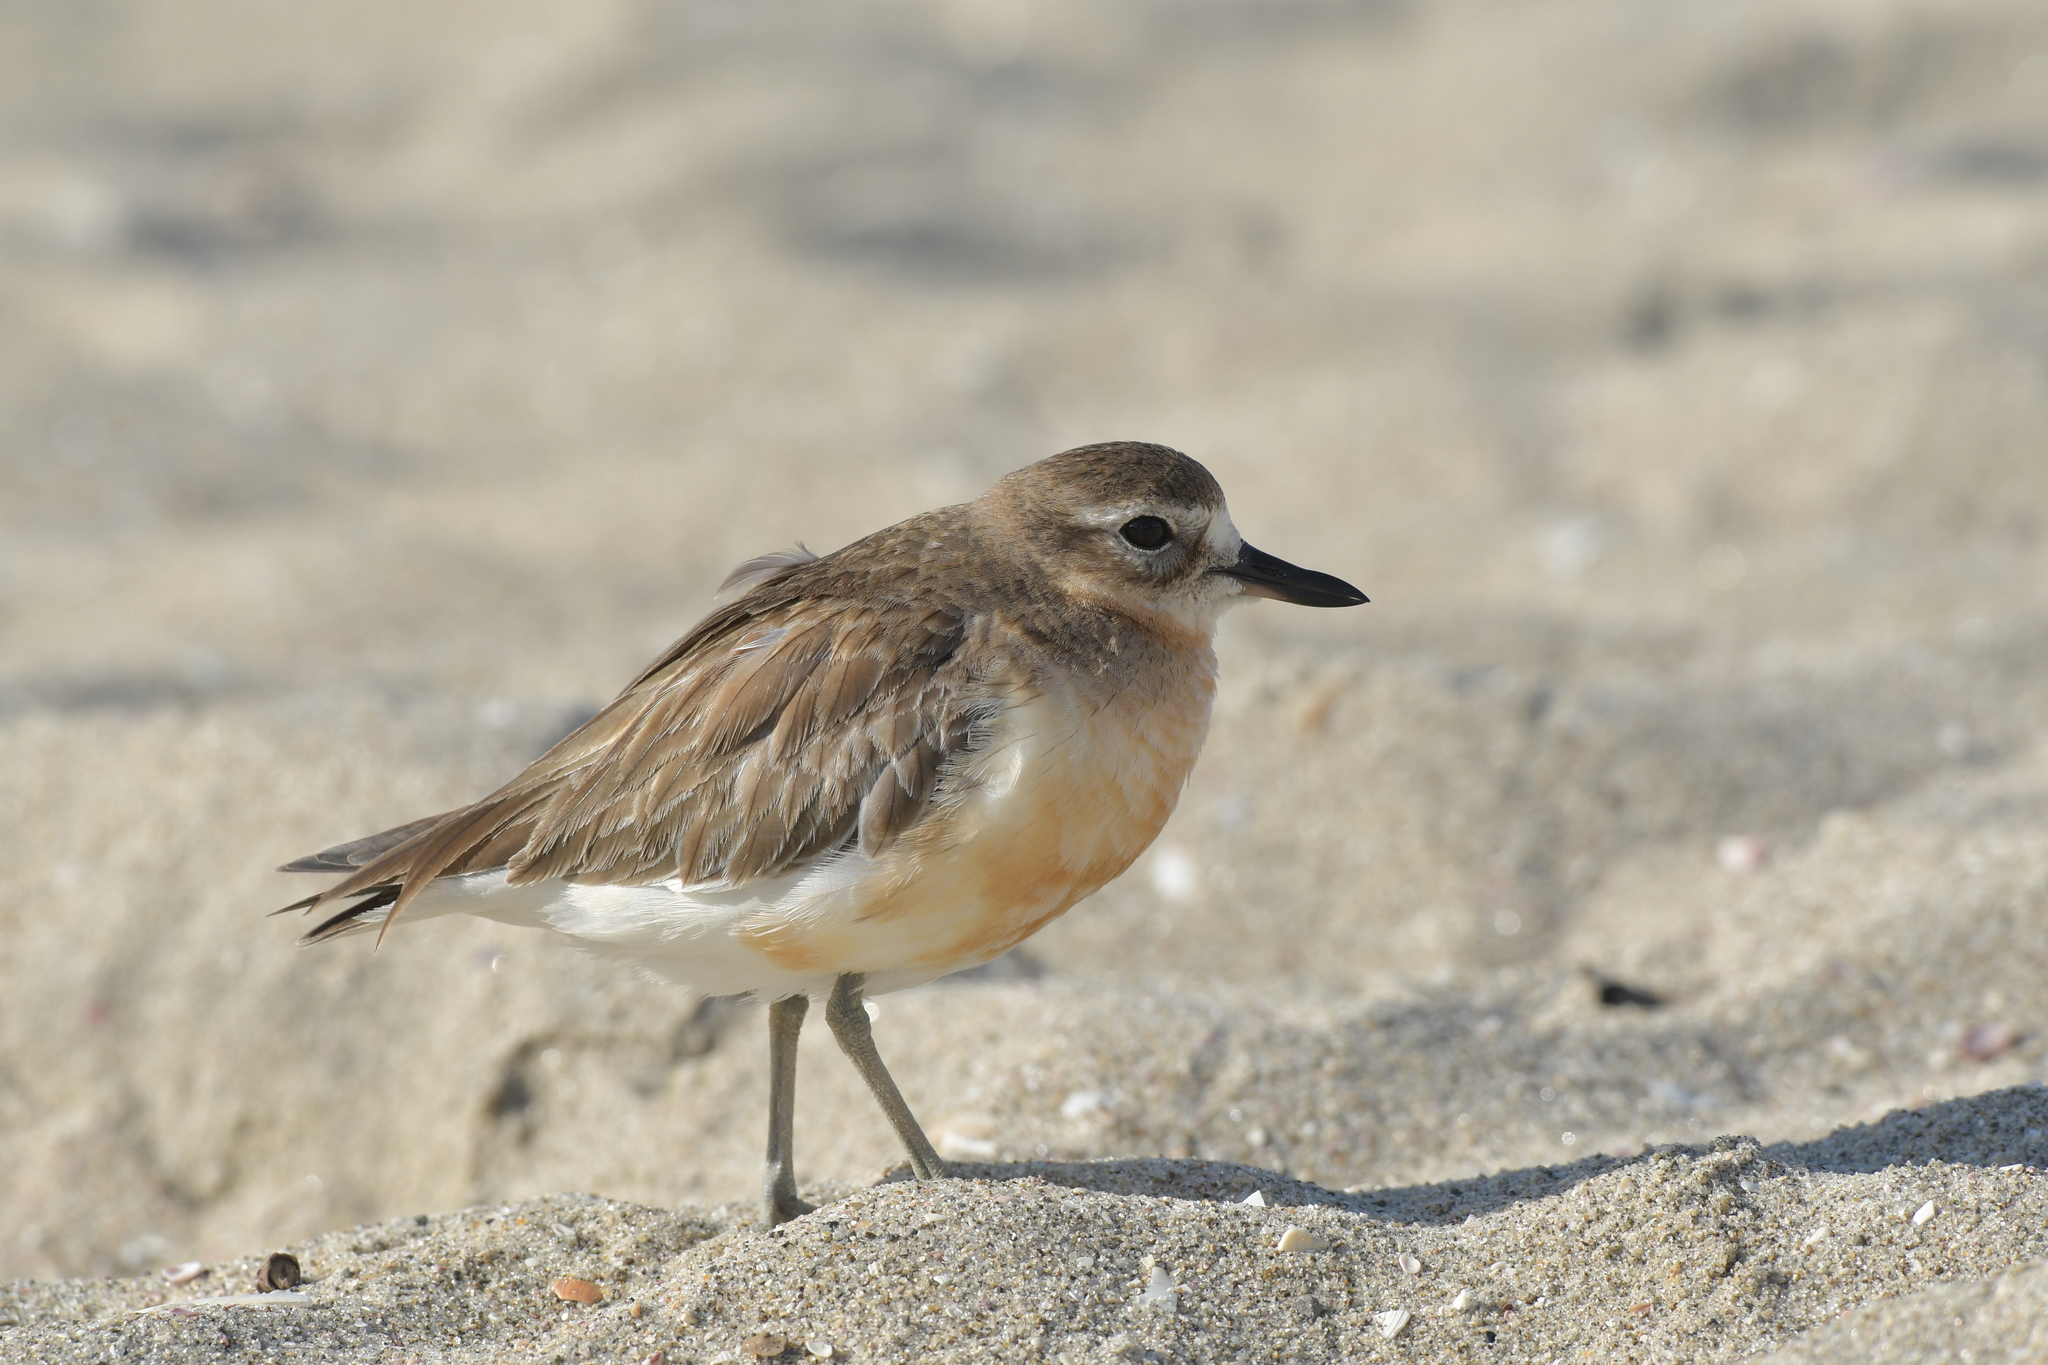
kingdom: Animalia
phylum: Chordata
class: Aves
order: Charadriiformes
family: Charadriidae
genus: Anarhynchus
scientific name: Anarhynchus
